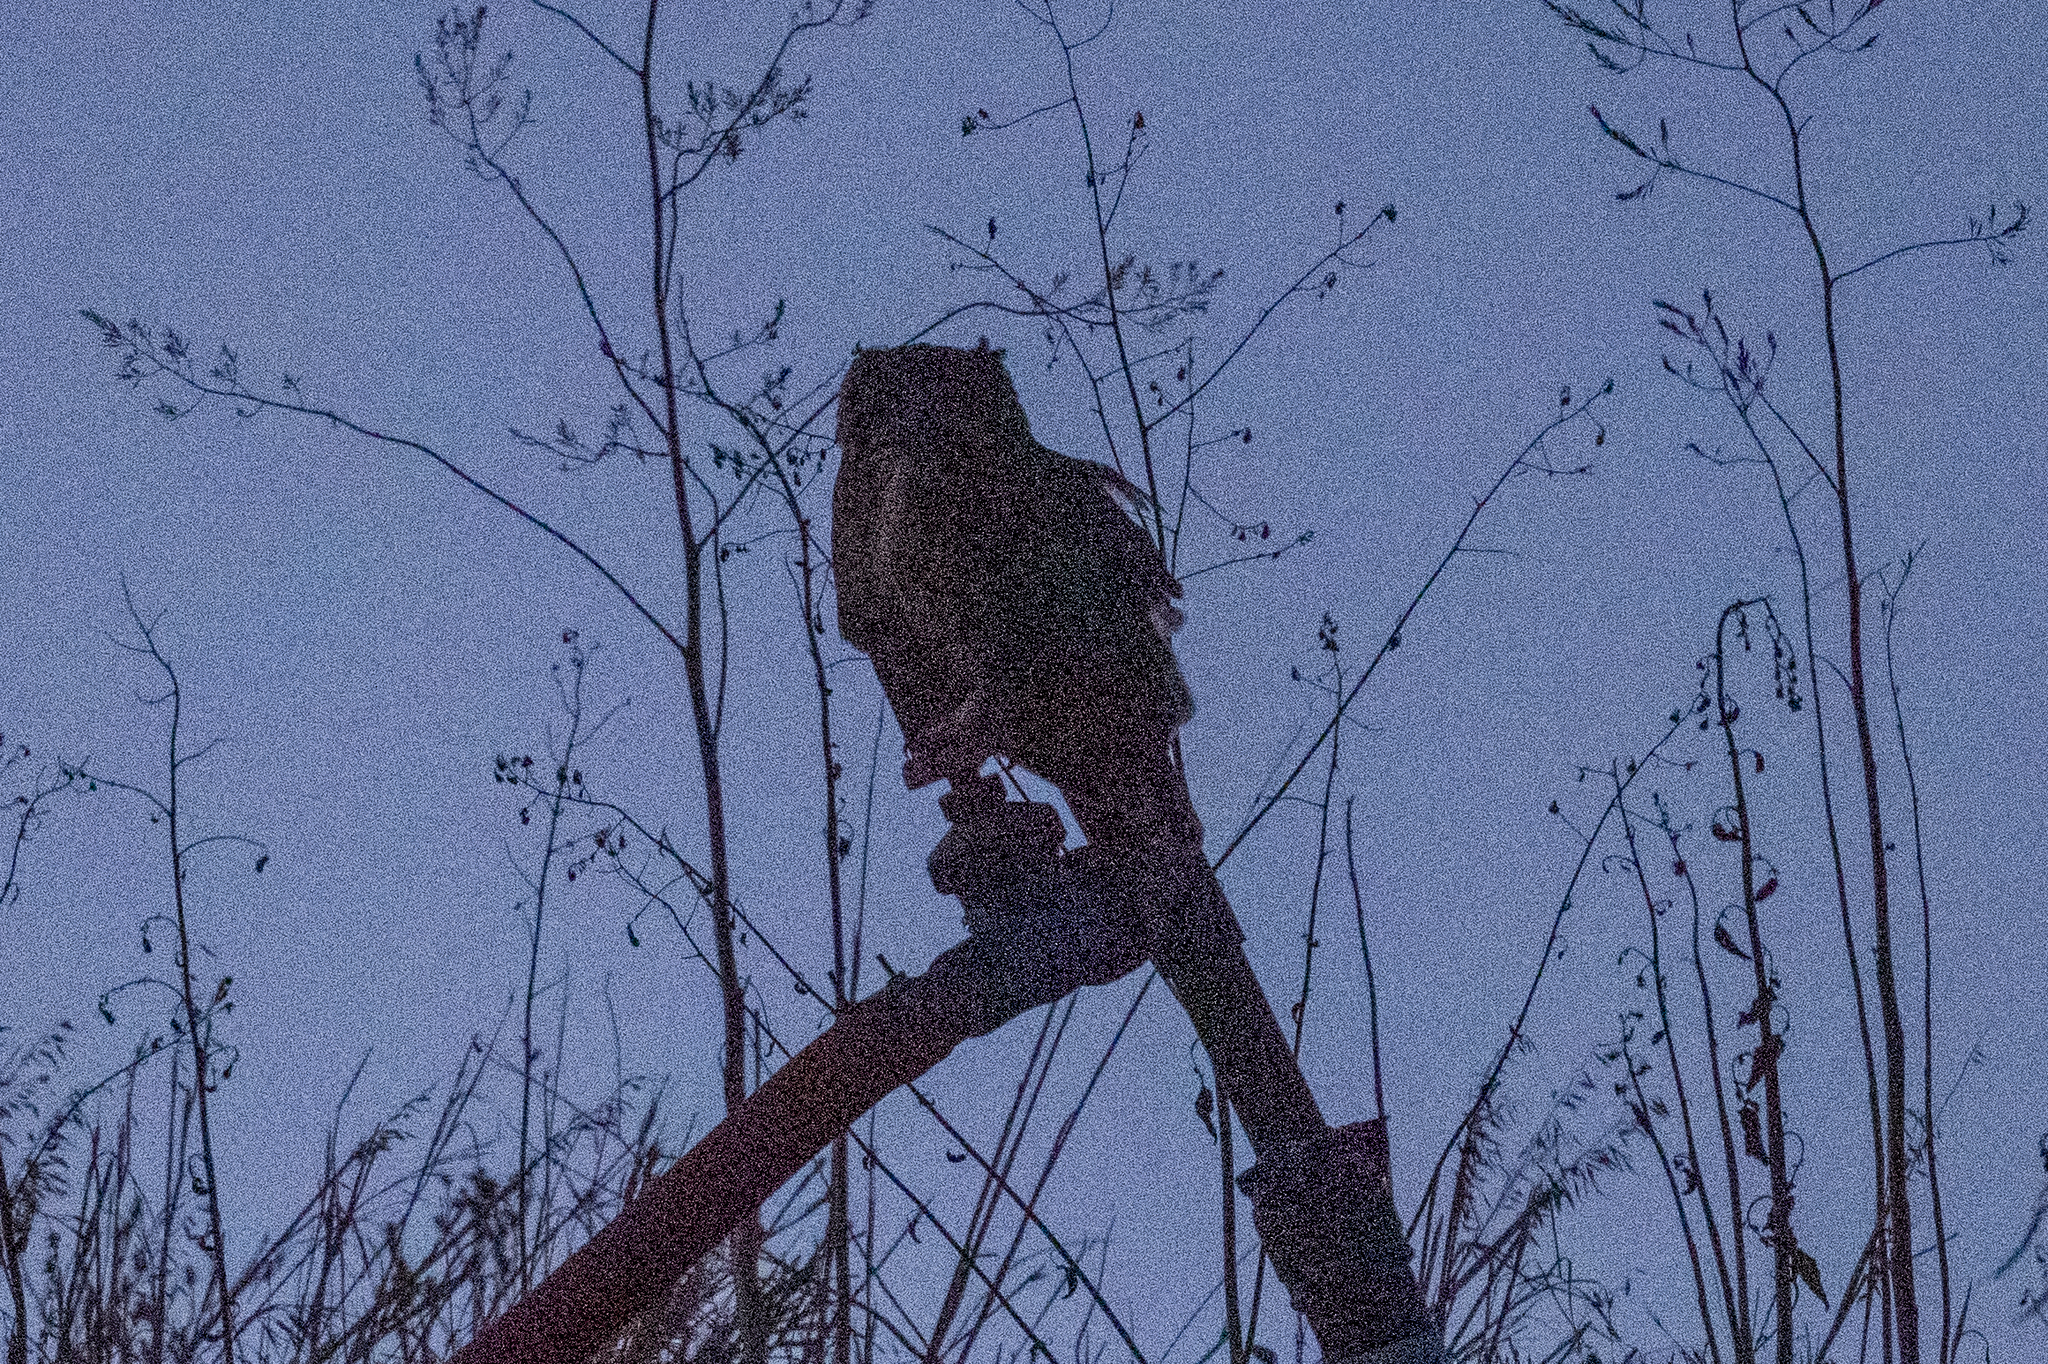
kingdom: Animalia
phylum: Chordata
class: Aves
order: Strigiformes
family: Strigidae
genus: Bubo
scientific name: Bubo virginianus
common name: Great horned owl
